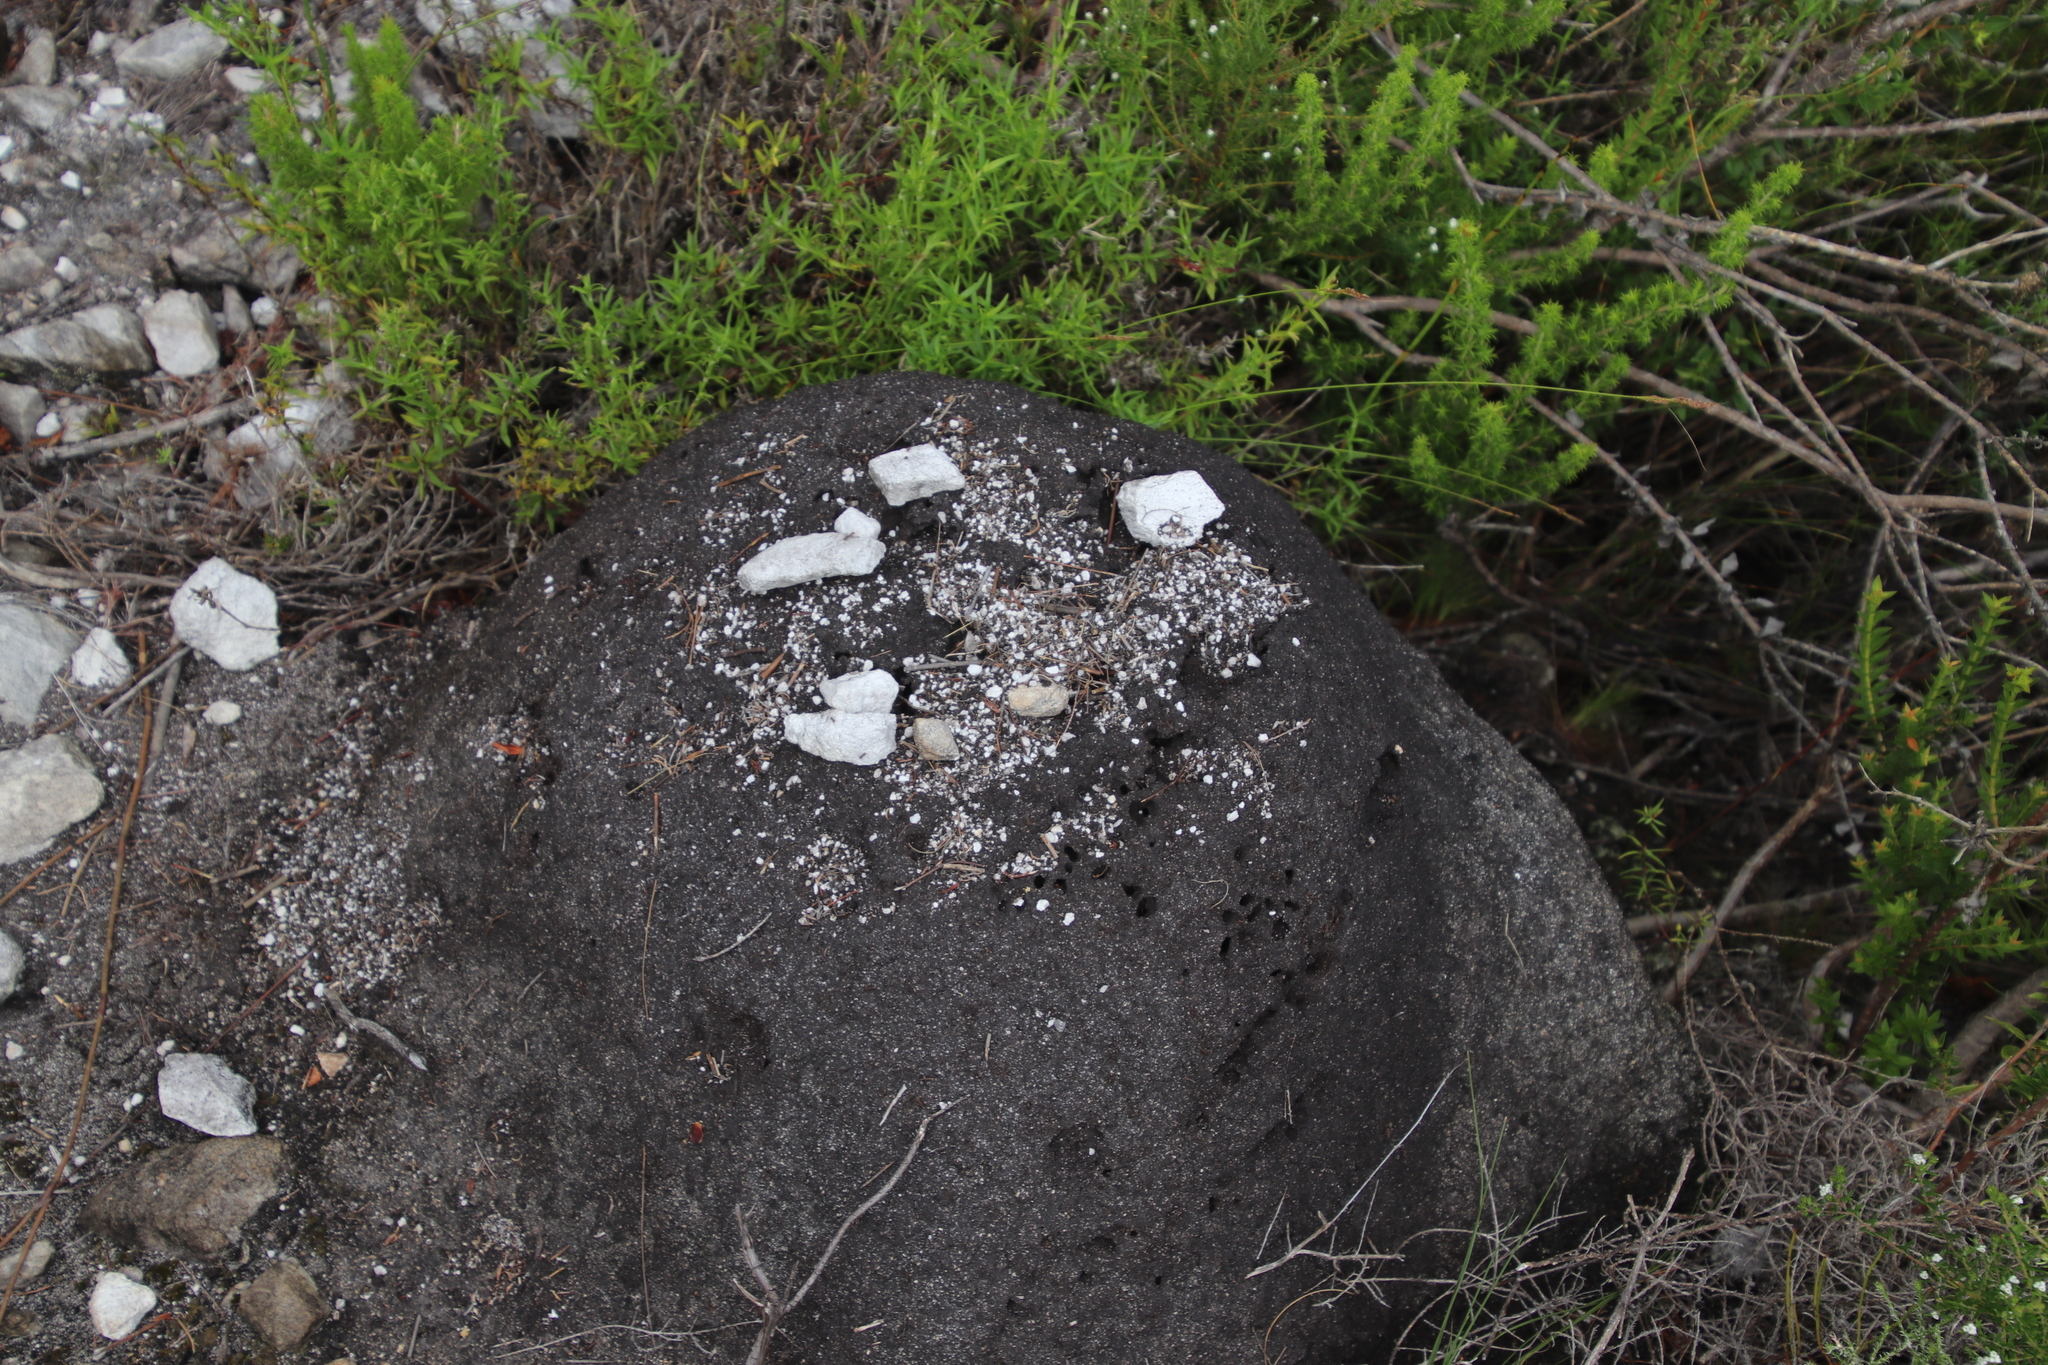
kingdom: Animalia
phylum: Arthropoda
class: Insecta
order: Blattodea
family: Termitidae
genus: Amitermes
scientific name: Amitermes hastatus
